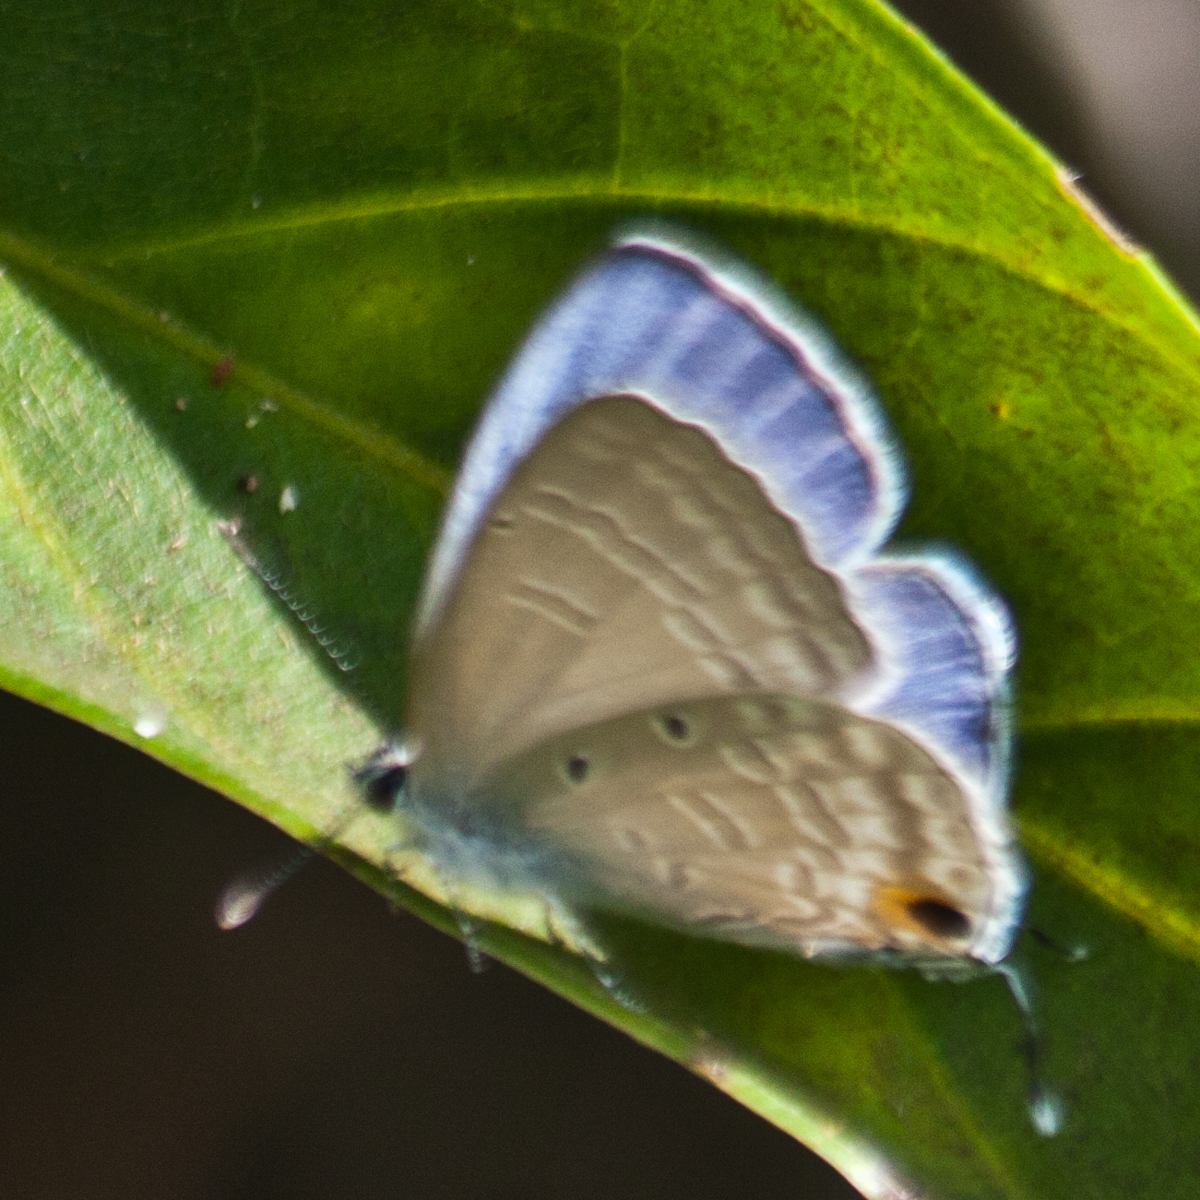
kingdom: Animalia
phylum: Arthropoda
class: Insecta
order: Lepidoptera
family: Lycaenidae
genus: Catochrysops
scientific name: Catochrysops panormus
